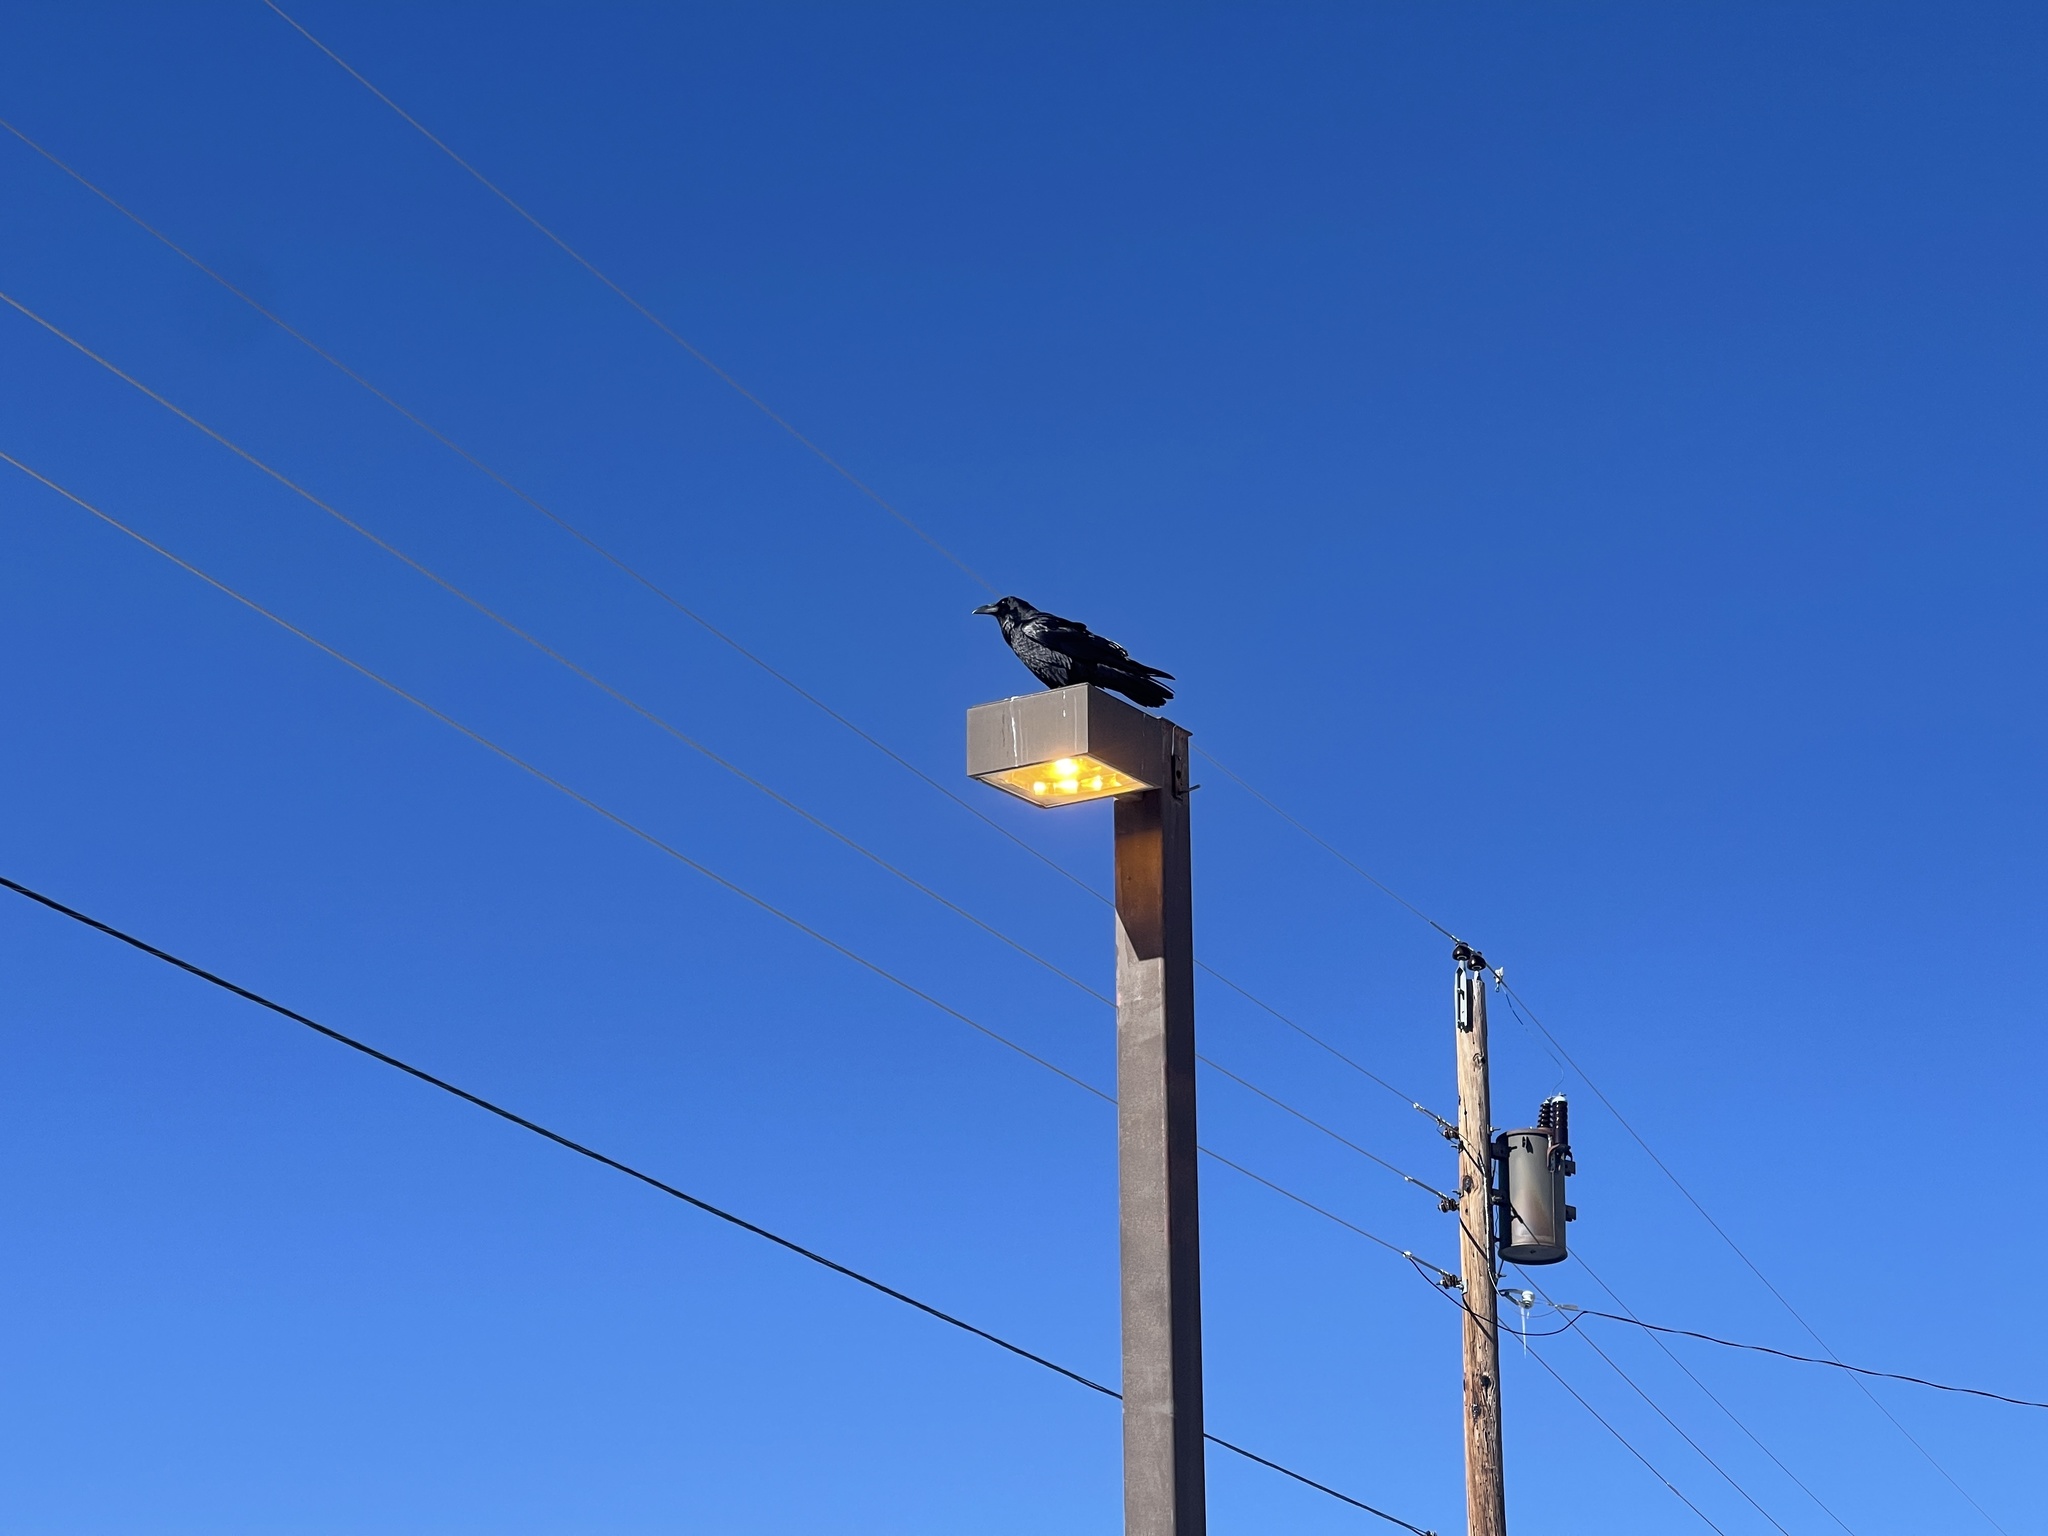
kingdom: Animalia
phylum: Chordata
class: Aves
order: Passeriformes
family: Corvidae
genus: Corvus
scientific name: Corvus corax
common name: Common raven
